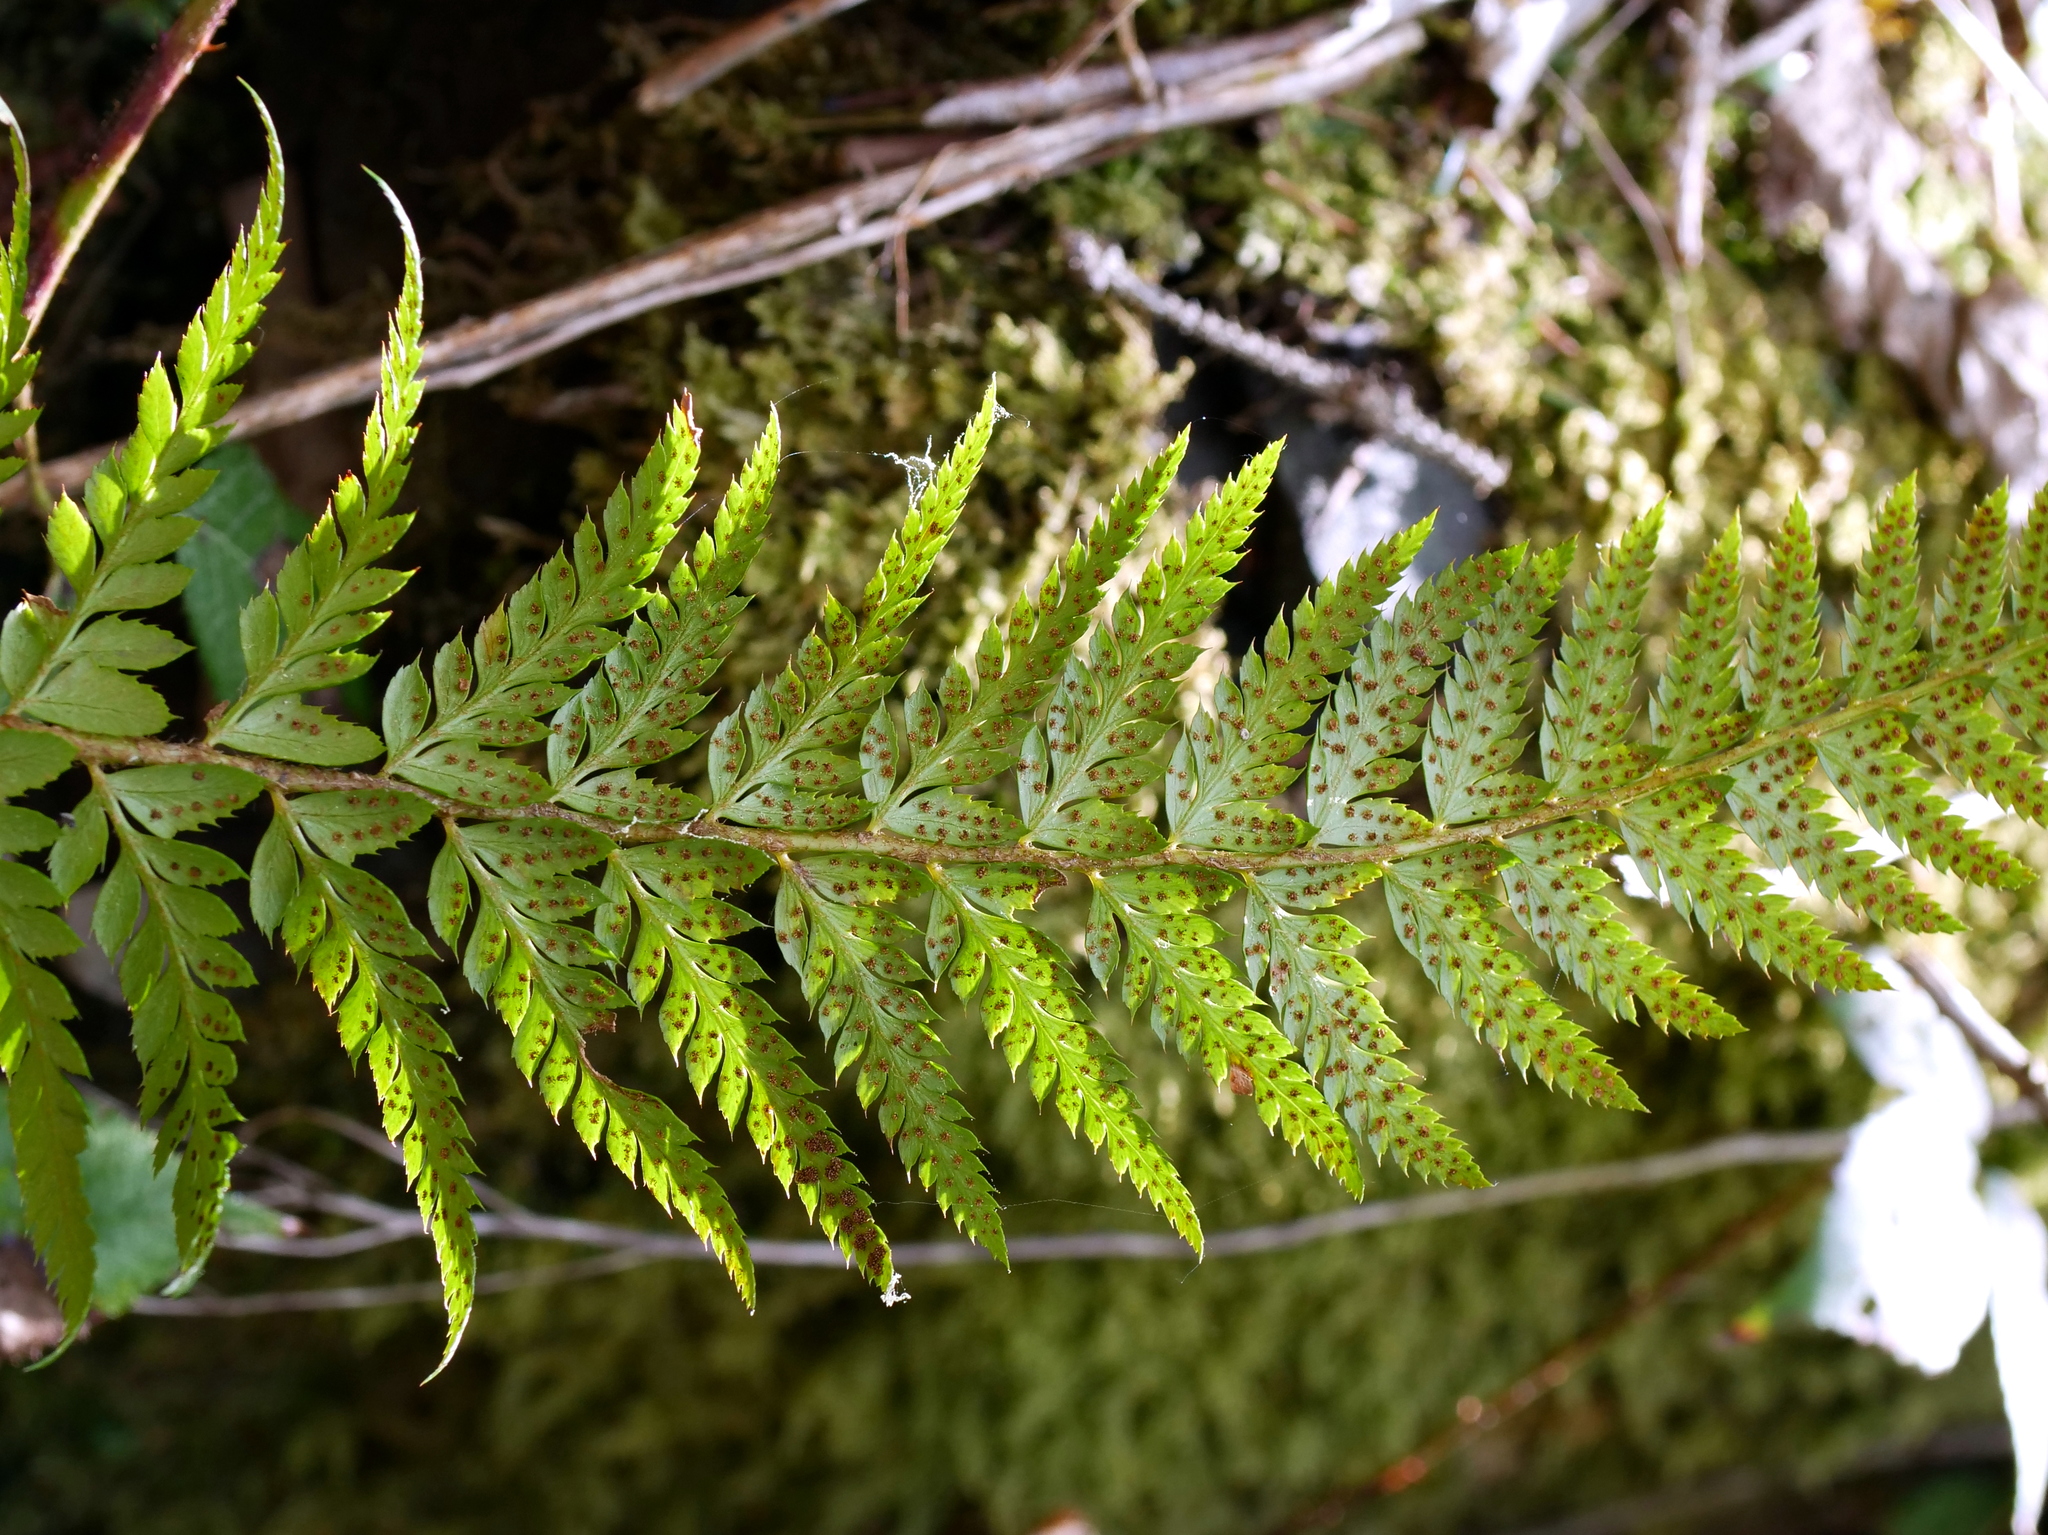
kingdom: Plantae
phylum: Tracheophyta
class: Polypodiopsida
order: Polypodiales
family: Dryopteridaceae
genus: Polystichum
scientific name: Polystichum aculeatum
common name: Hard shield-fern
